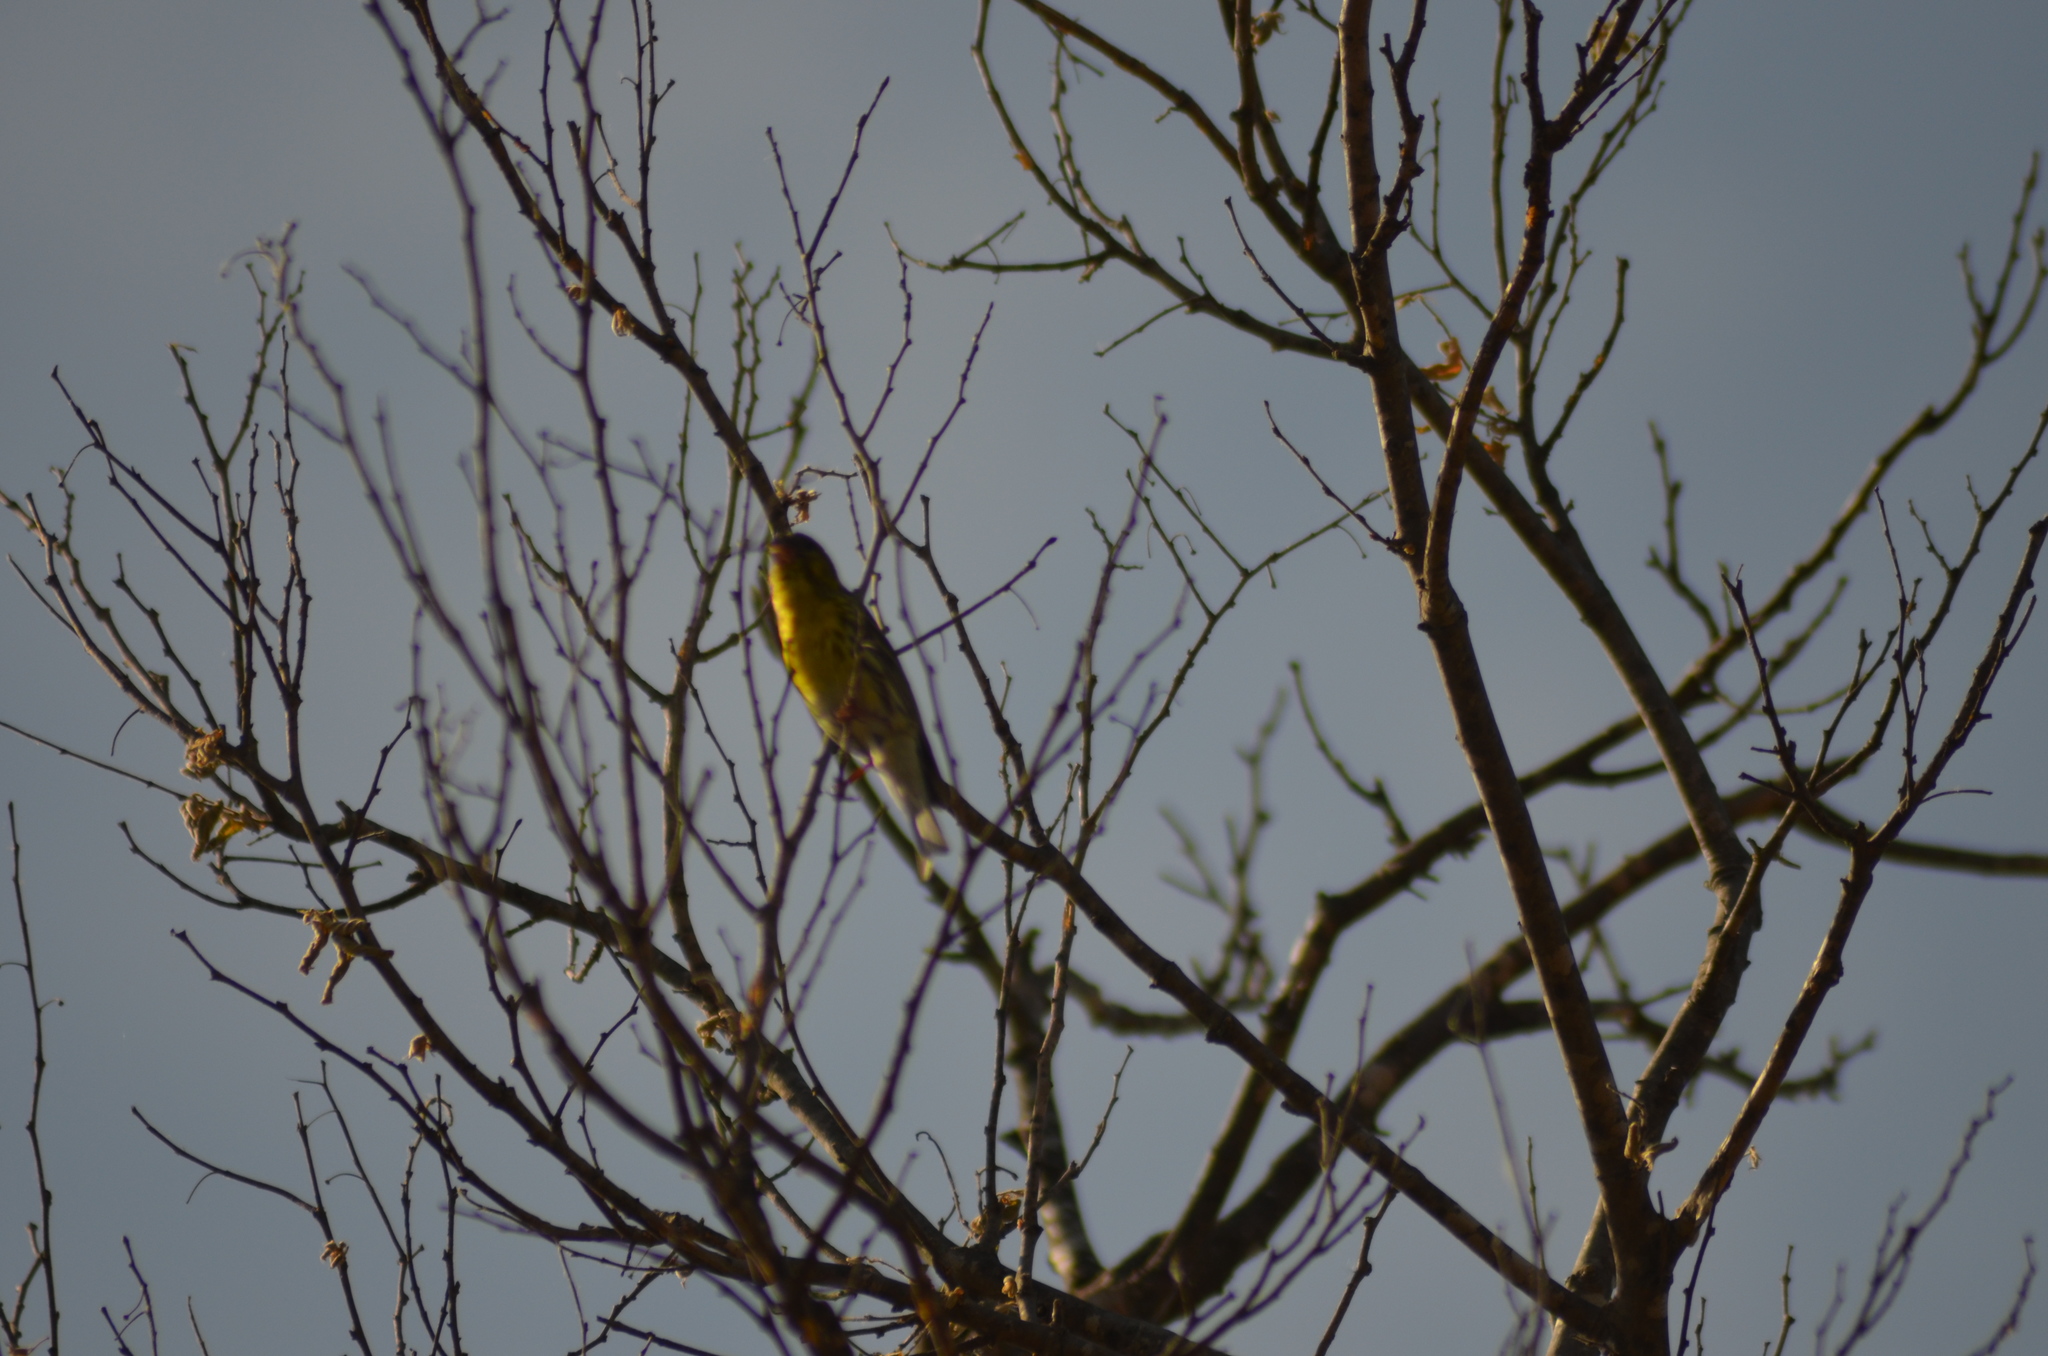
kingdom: Animalia
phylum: Chordata
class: Aves
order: Passeriformes
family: Fringillidae
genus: Serinus
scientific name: Serinus serinus
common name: European serin
